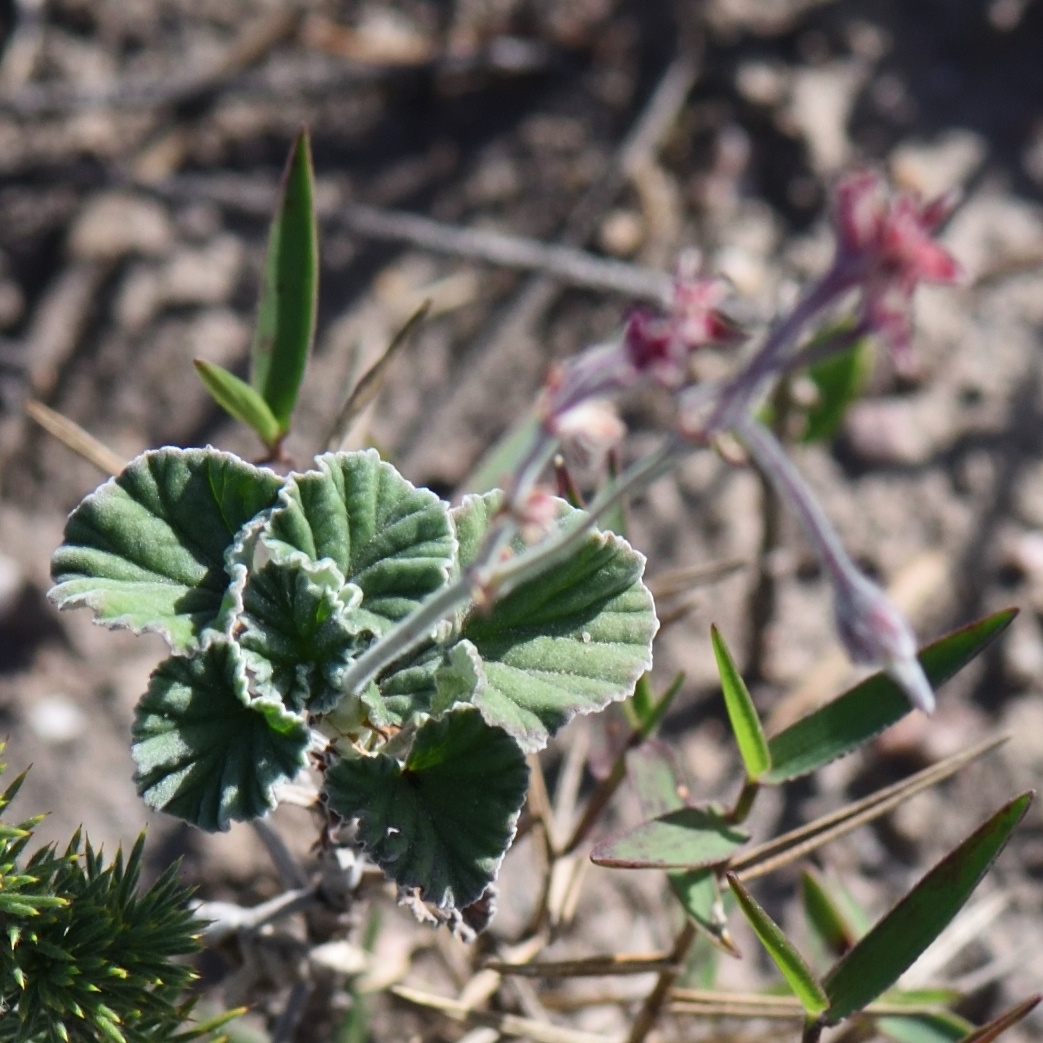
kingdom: Plantae
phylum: Tracheophyta
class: Magnoliopsida
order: Geraniales
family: Geraniaceae
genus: Pelargonium
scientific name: Pelargonium reniforme
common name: Kidney-leaf pelargonium
